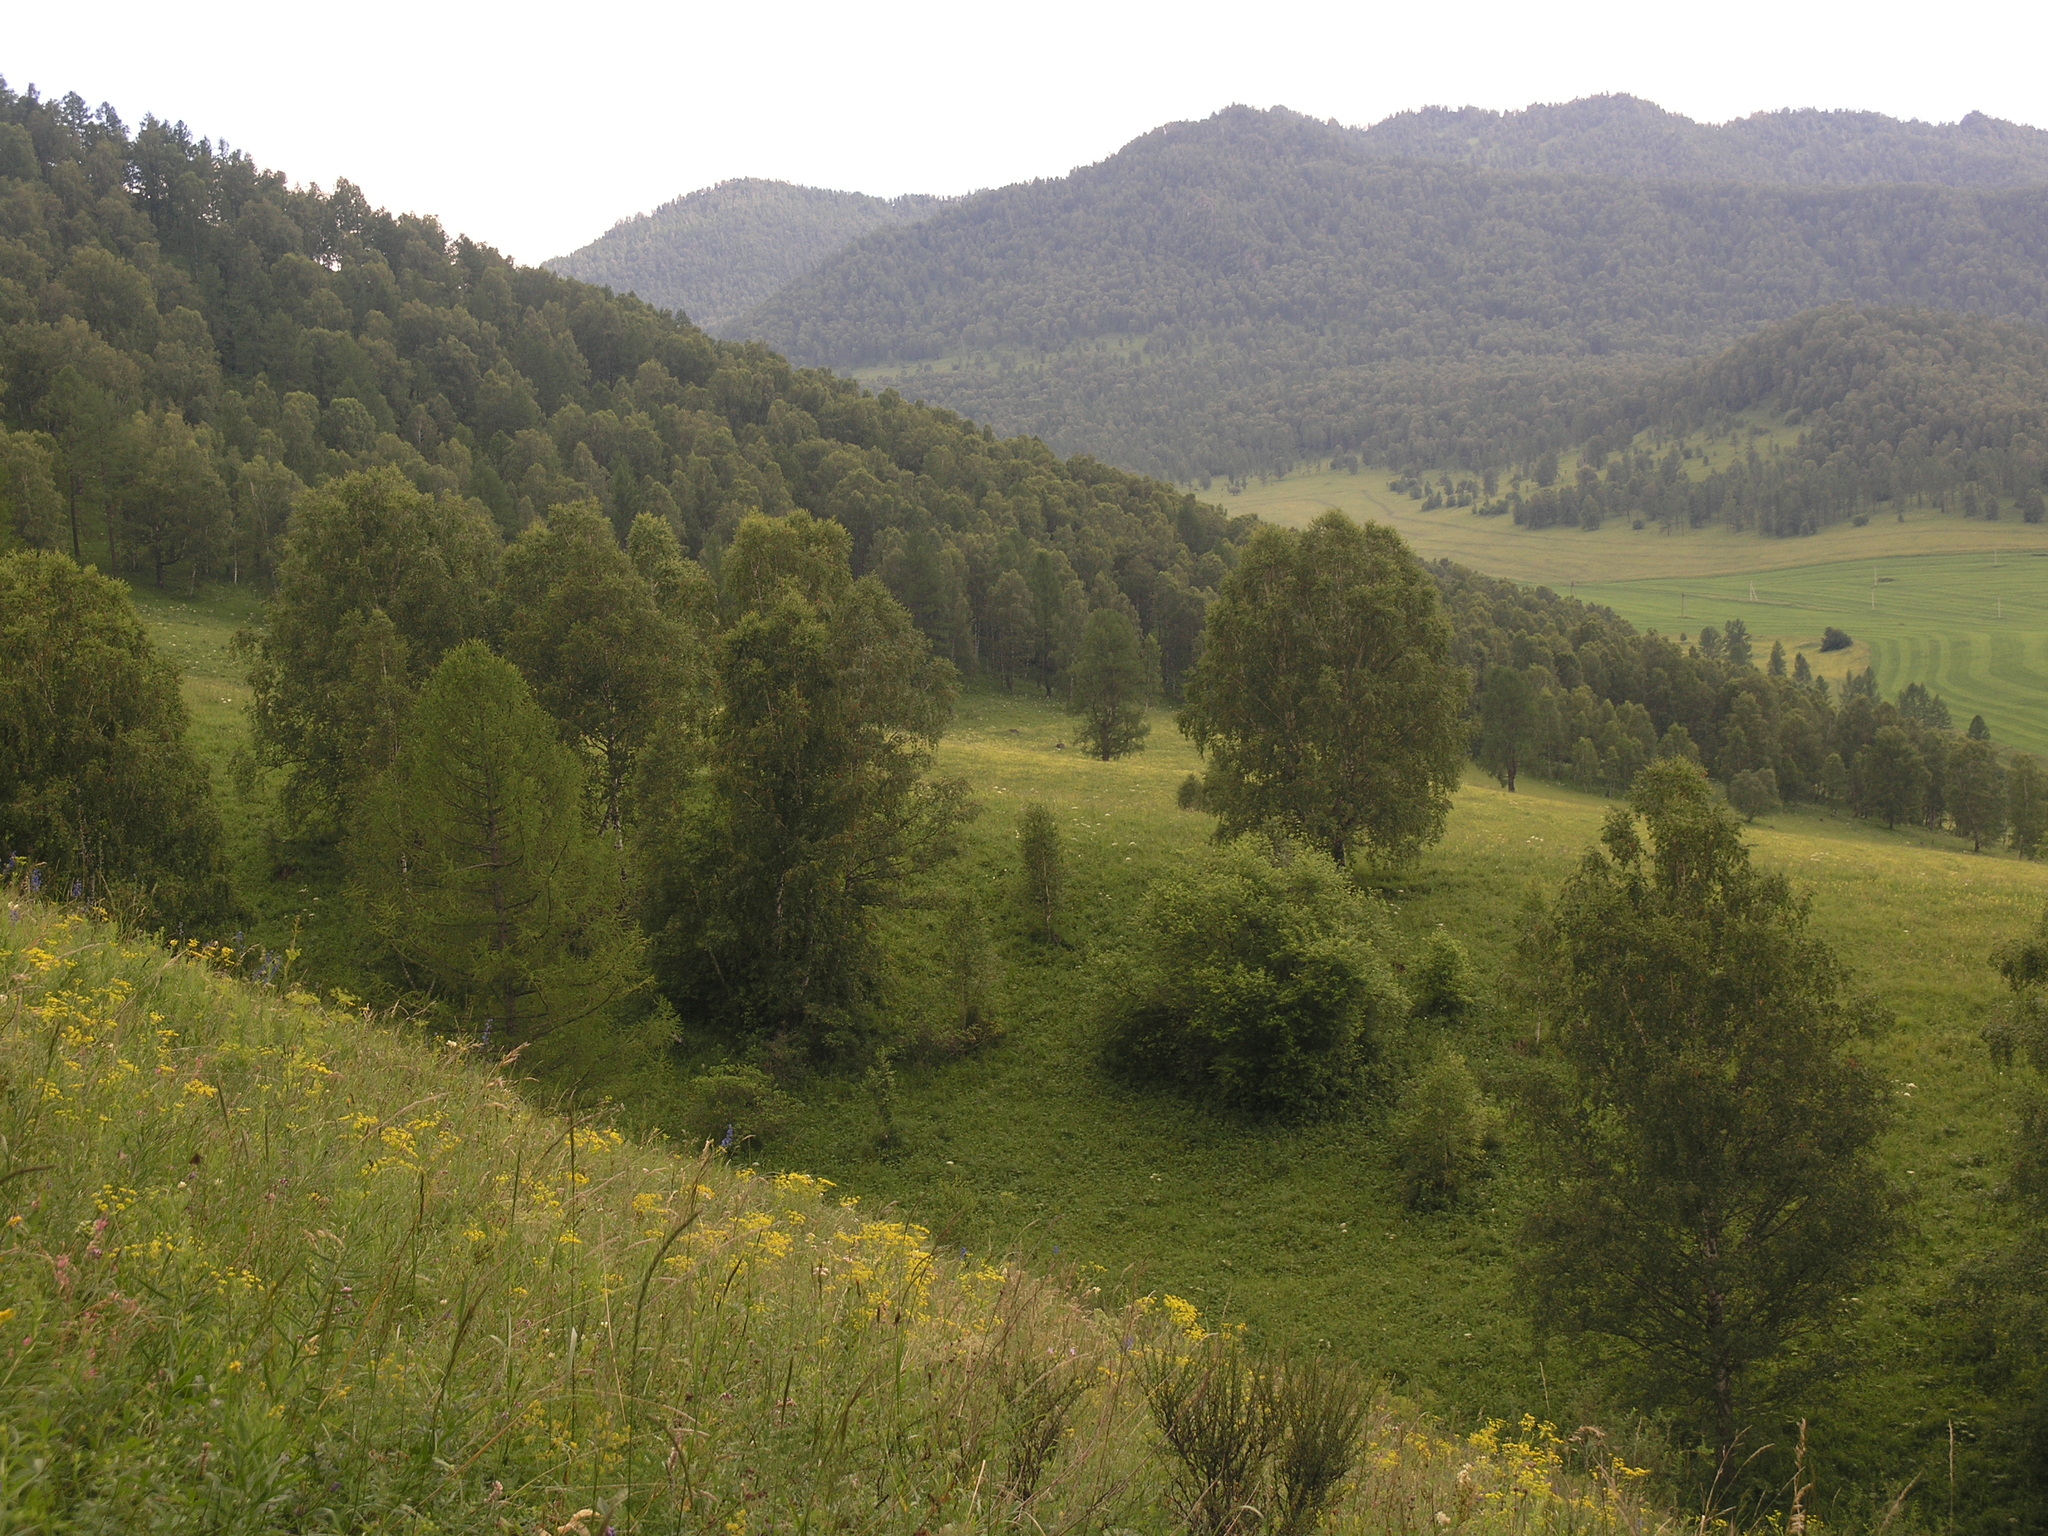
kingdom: Plantae
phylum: Tracheophyta
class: Magnoliopsida
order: Apiales
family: Apiaceae
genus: Peucedanum
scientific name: Peucedanum morisonii
